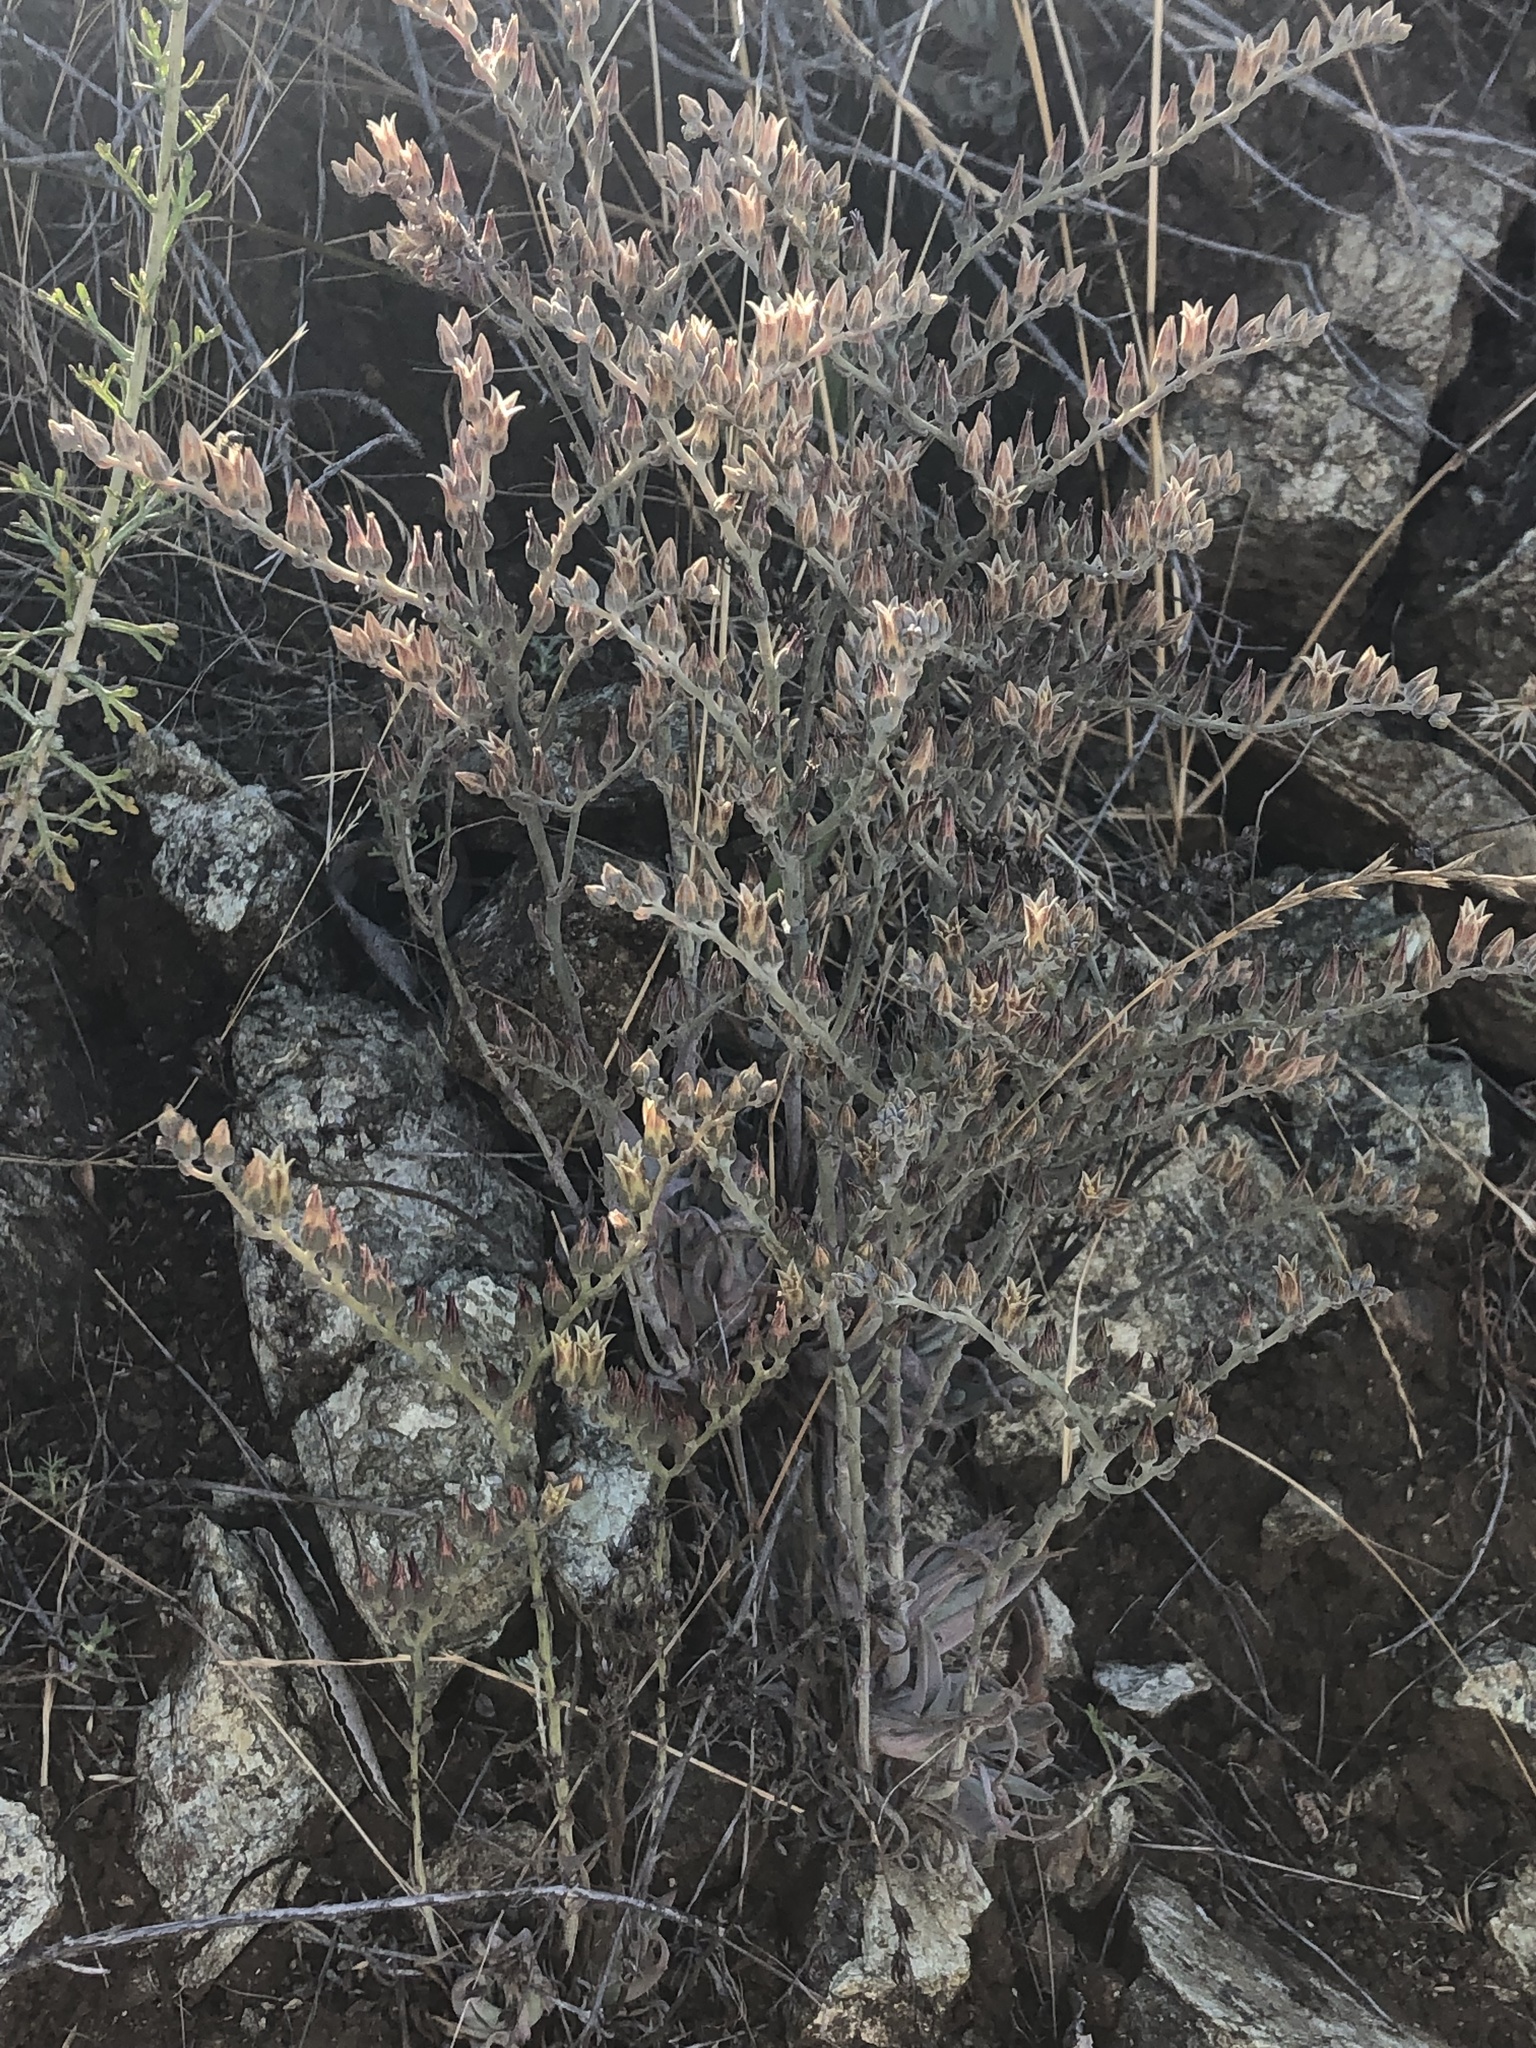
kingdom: Plantae
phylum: Tracheophyta
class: Magnoliopsida
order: Saxifragales
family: Crassulaceae
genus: Dudleya
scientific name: Dudleya abramsii
